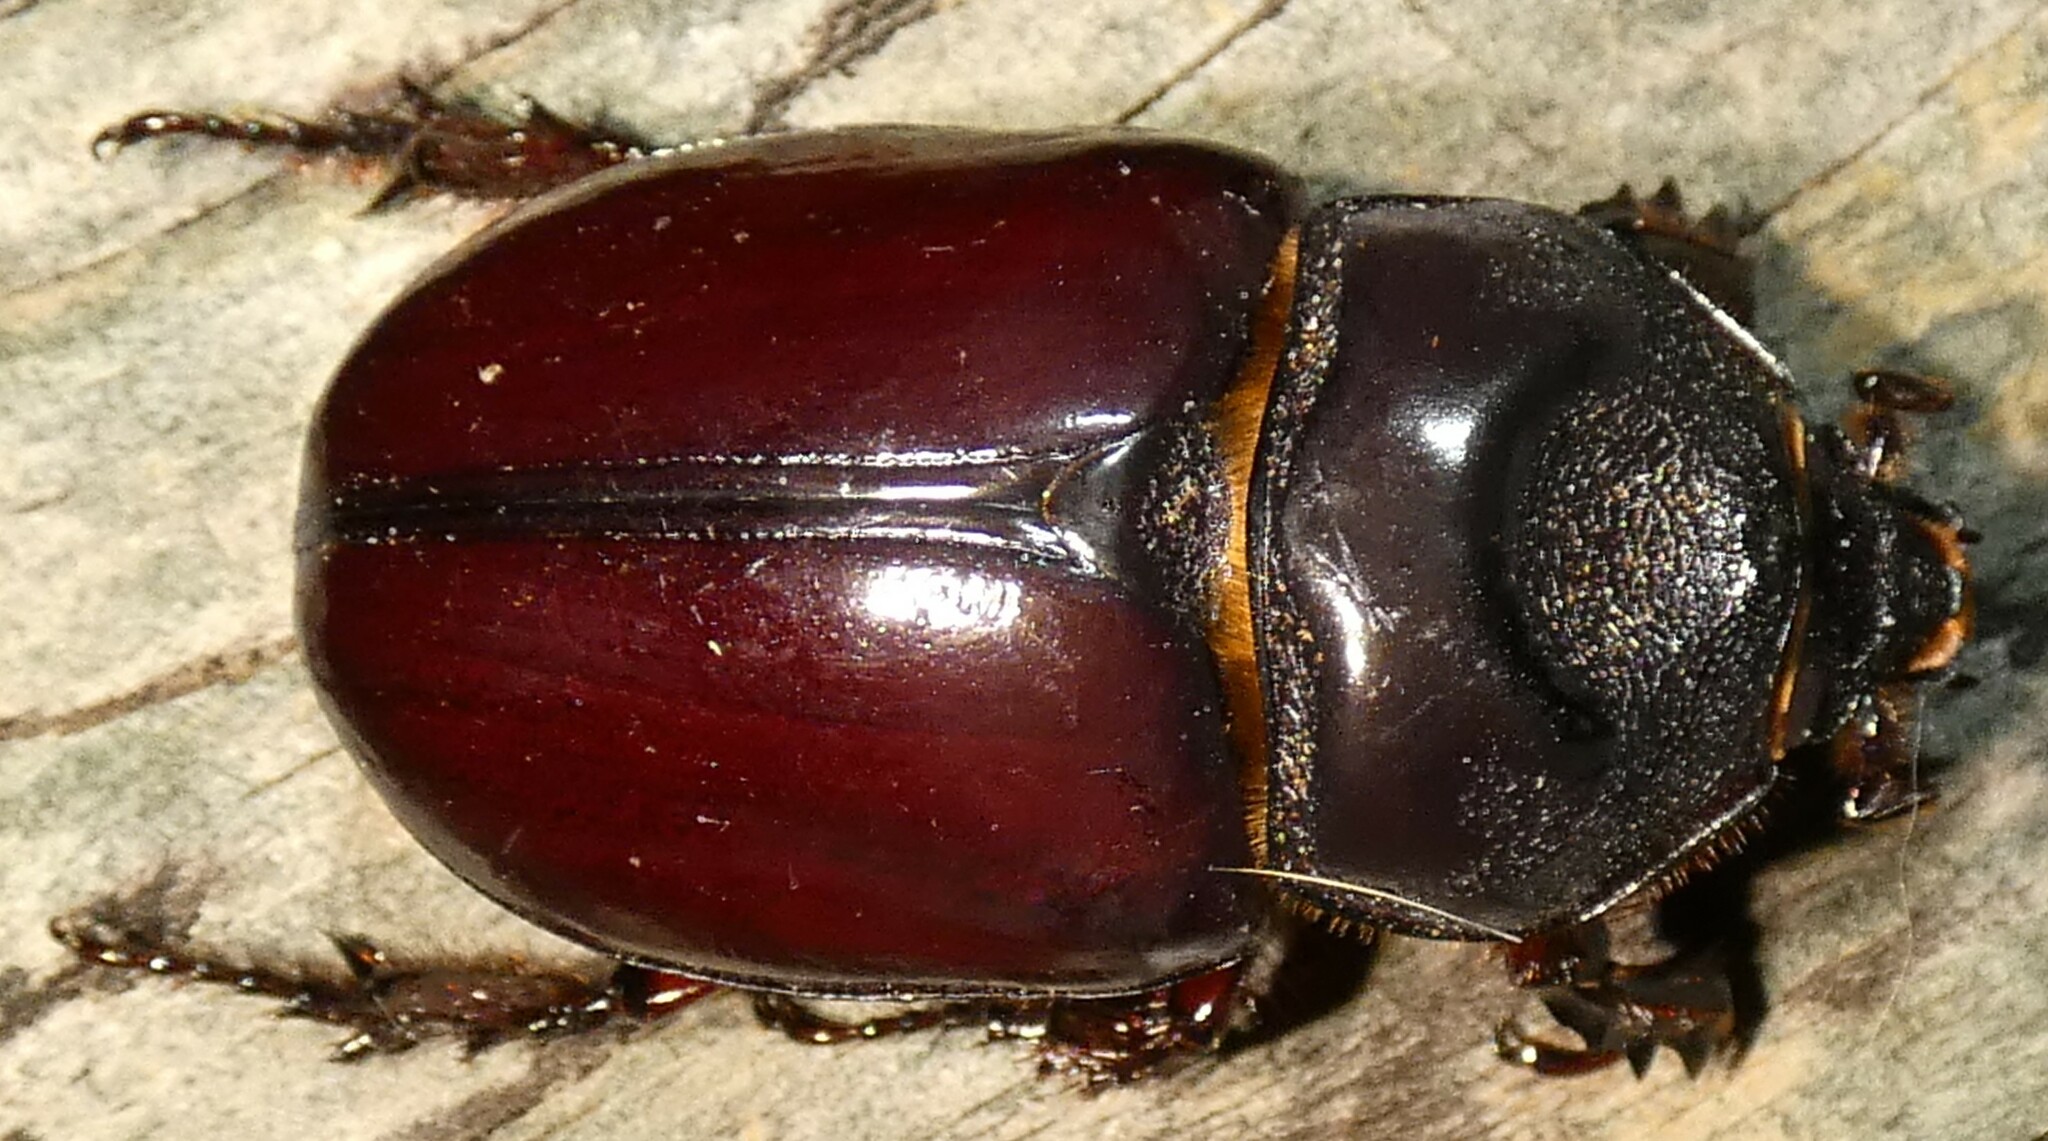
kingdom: Animalia
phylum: Arthropoda
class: Insecta
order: Coleoptera
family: Scarabaeidae
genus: Strategus
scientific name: Strategus aloeus
